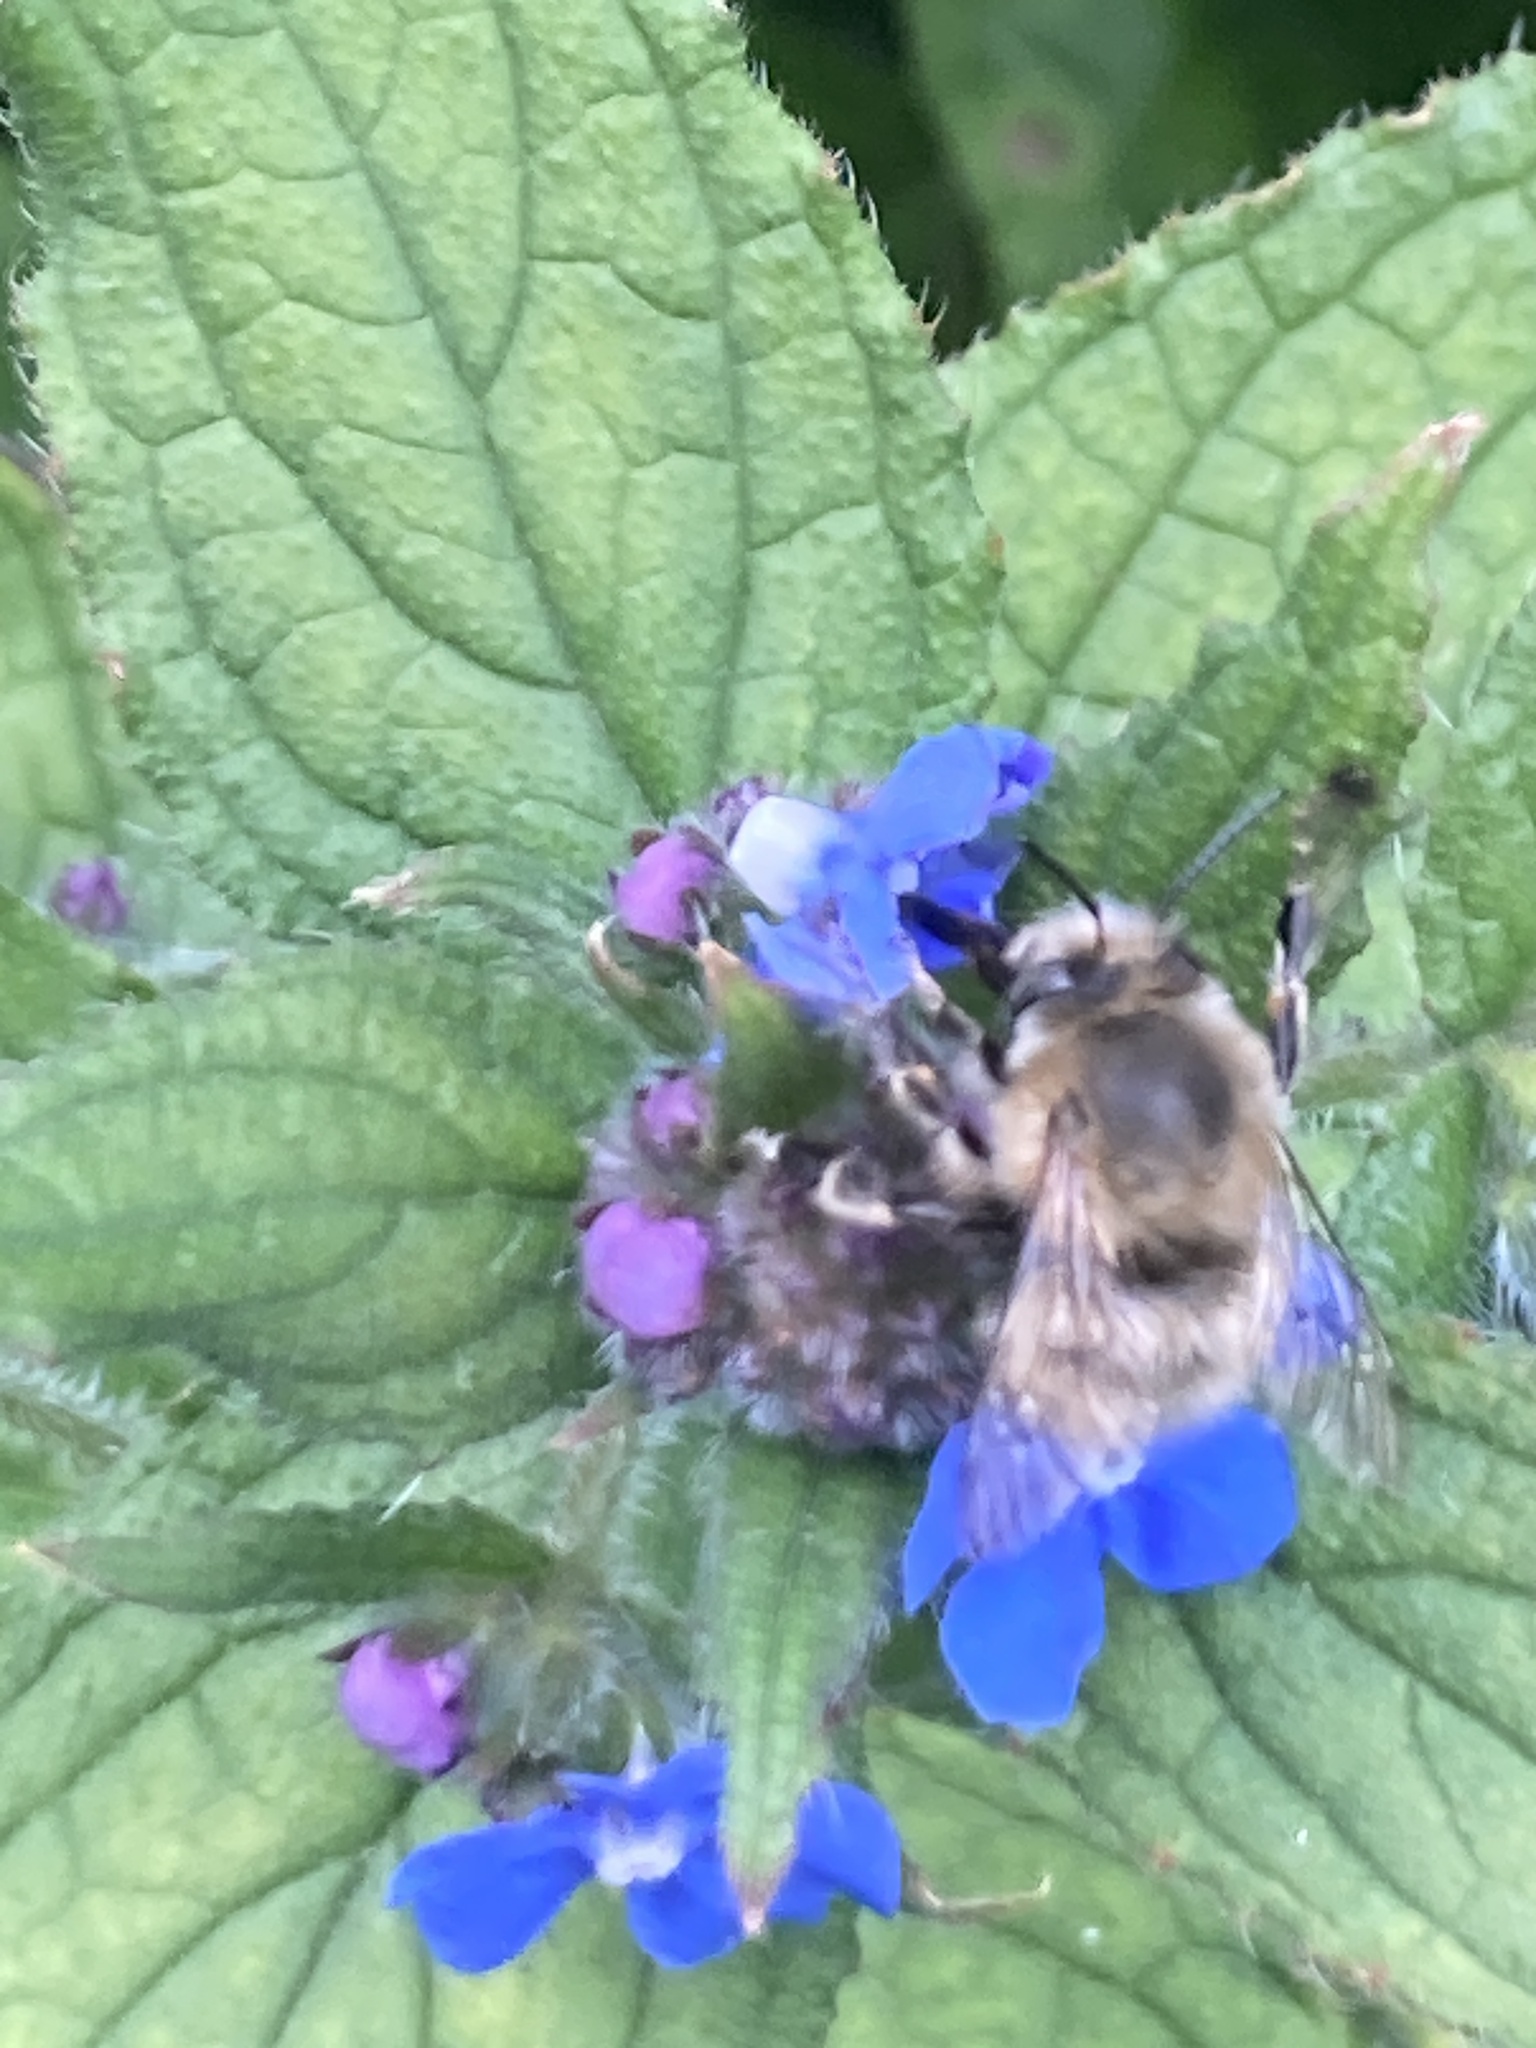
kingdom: Animalia
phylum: Arthropoda
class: Insecta
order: Hymenoptera
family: Apidae
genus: Anthophora
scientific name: Anthophora plumipes
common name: Hairy-footed flower bee
